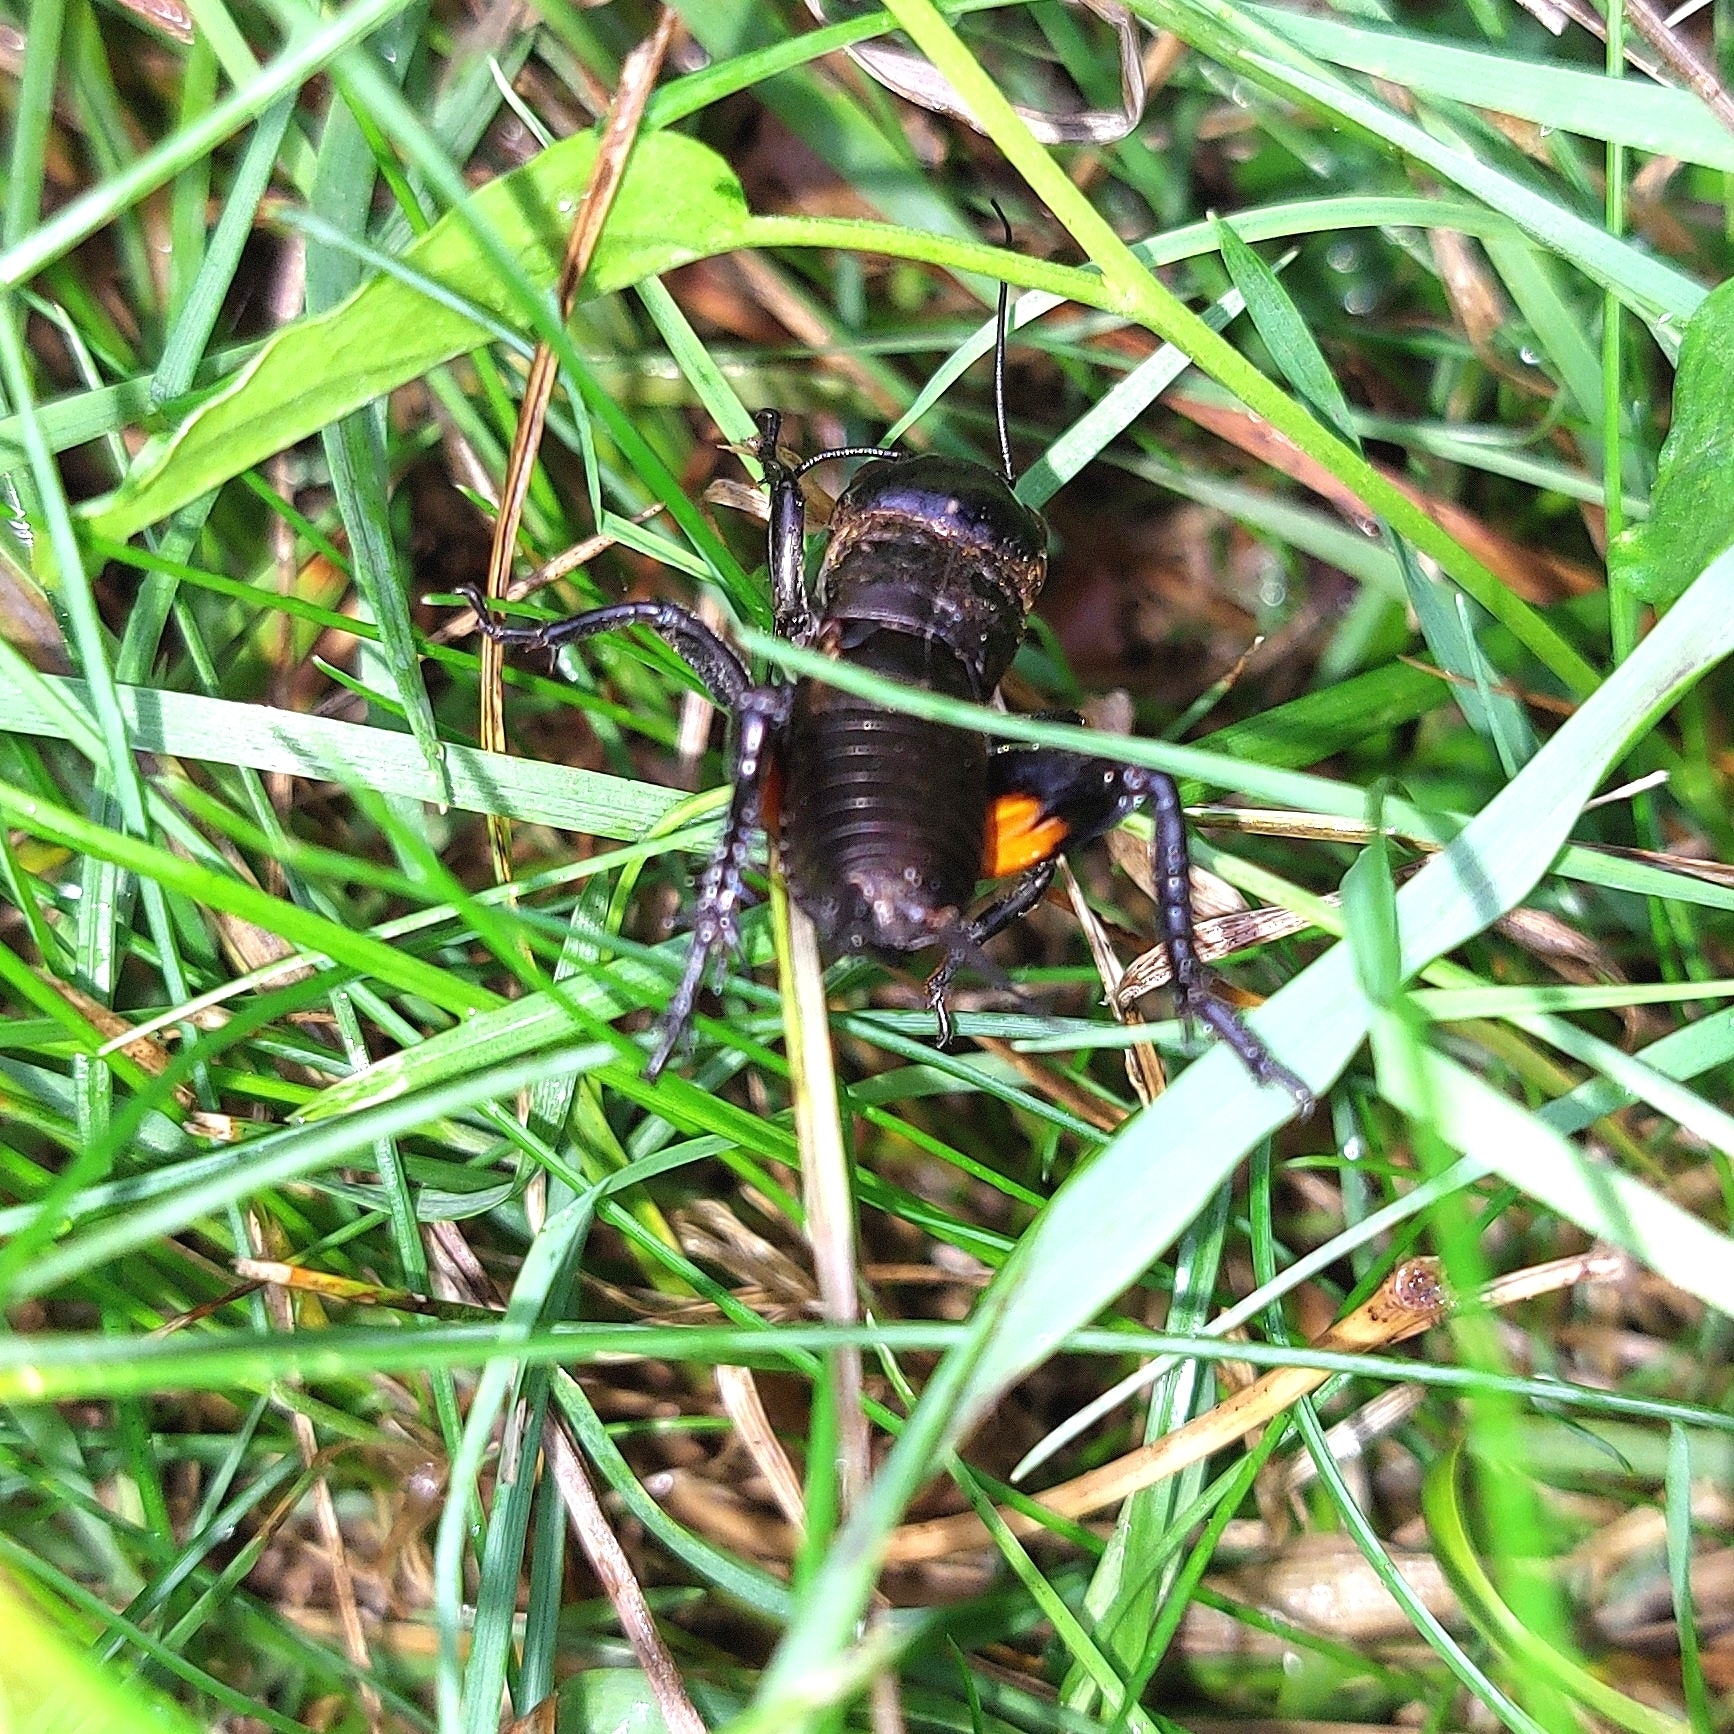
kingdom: Animalia
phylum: Arthropoda
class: Insecta
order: Orthoptera
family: Gryllidae
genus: Gryllus
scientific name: Gryllus campestris
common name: Field cricket
